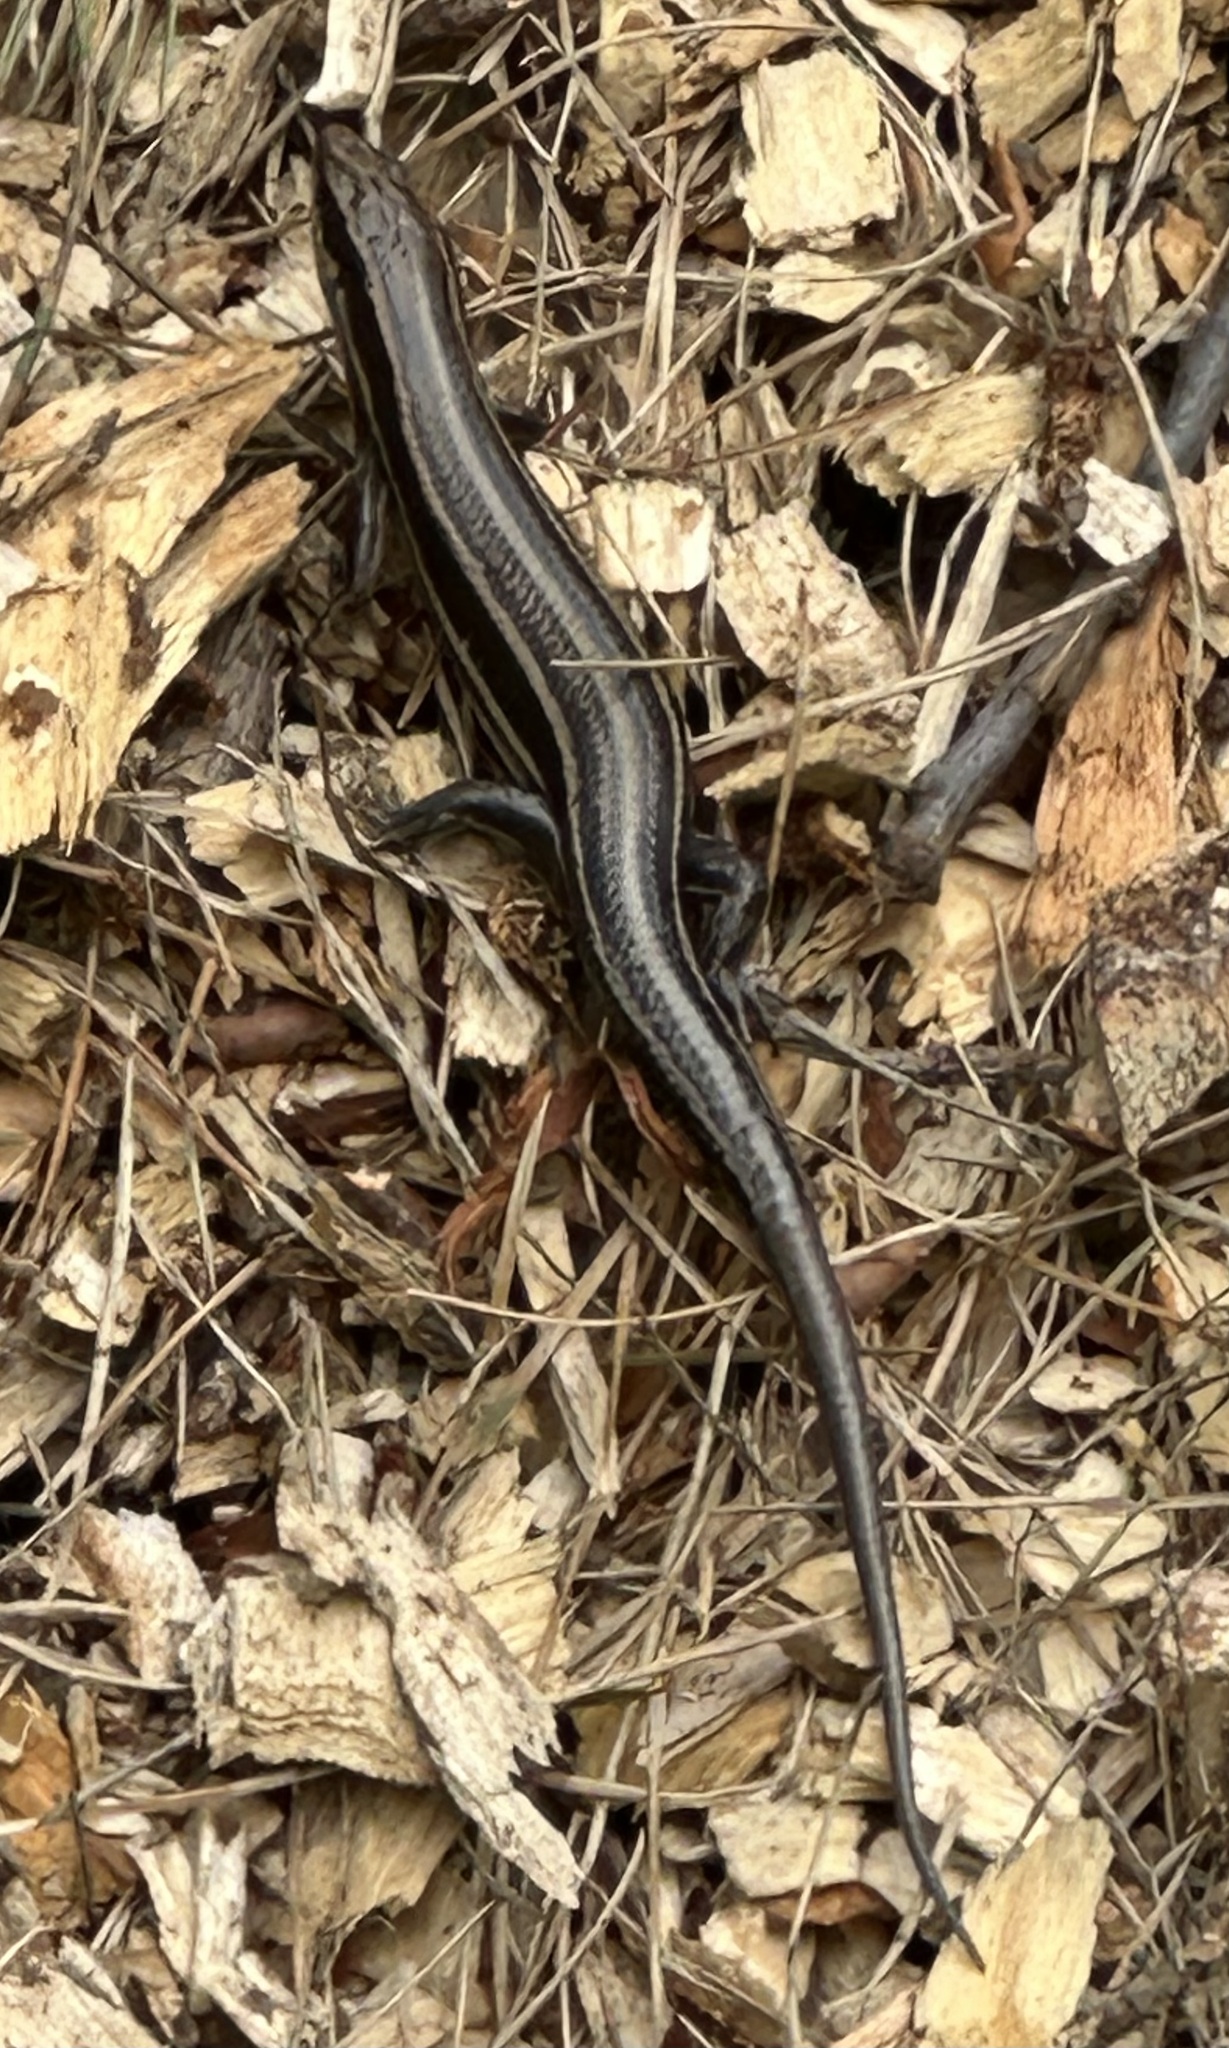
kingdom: Animalia
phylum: Chordata
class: Squamata
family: Scincidae
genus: Plestiodon
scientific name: Plestiodon fasciatus
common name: Five-lined skink
